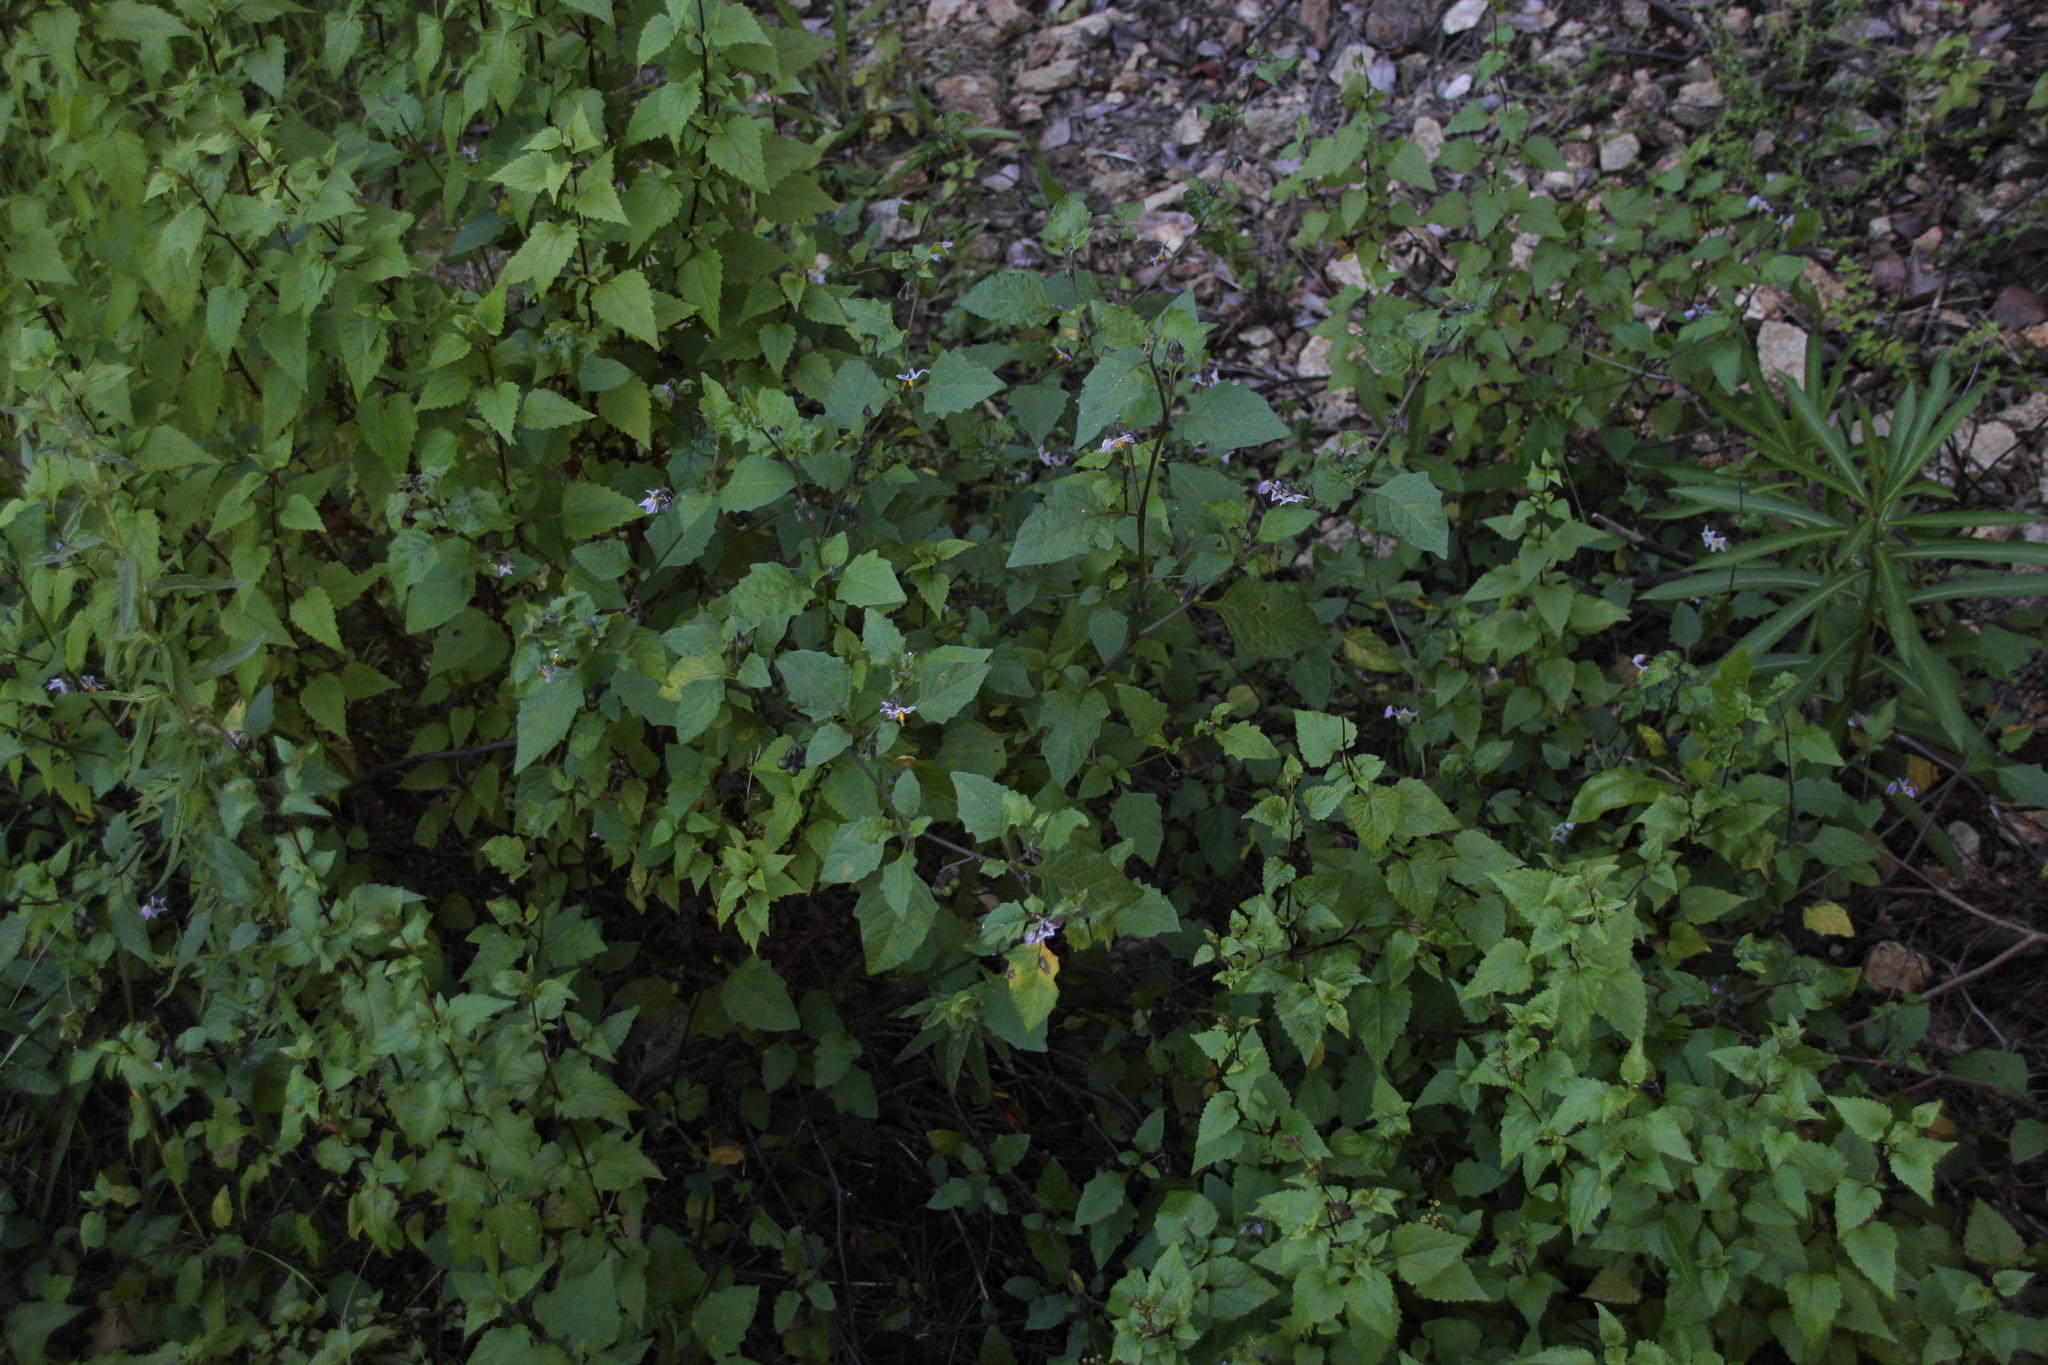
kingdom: Plantae
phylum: Tracheophyta
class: Magnoliopsida
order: Solanales
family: Solanaceae
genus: Solanum
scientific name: Solanum furcatum
